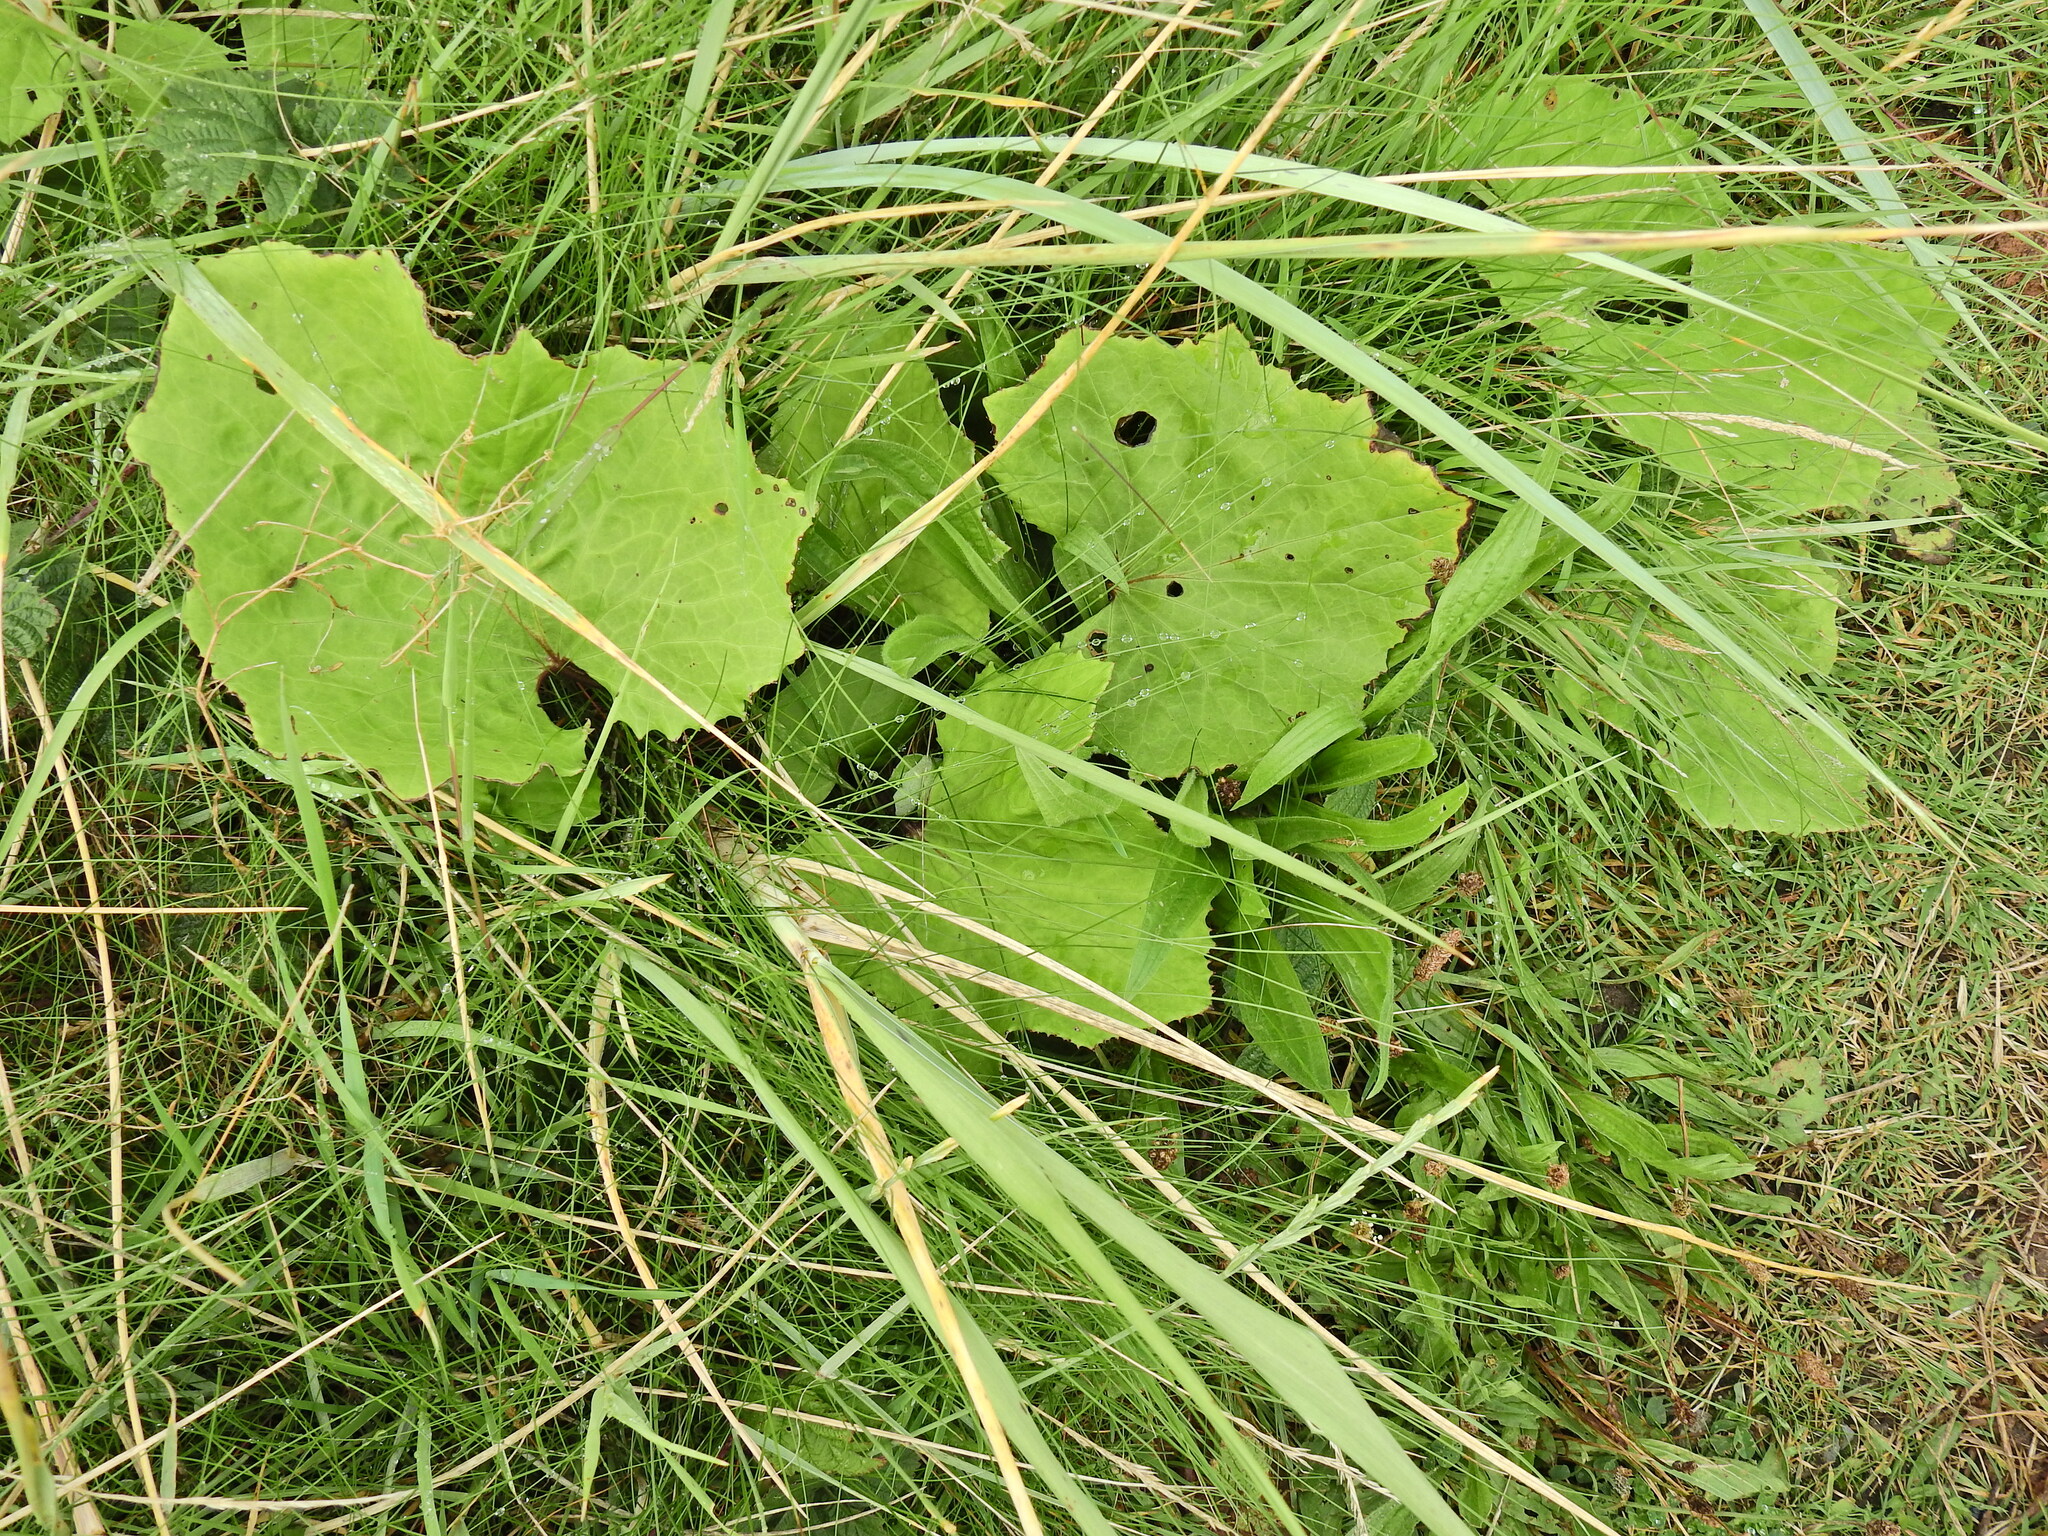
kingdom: Plantae
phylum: Tracheophyta
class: Magnoliopsida
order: Asterales
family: Asteraceae
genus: Tussilago
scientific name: Tussilago farfara
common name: Coltsfoot
